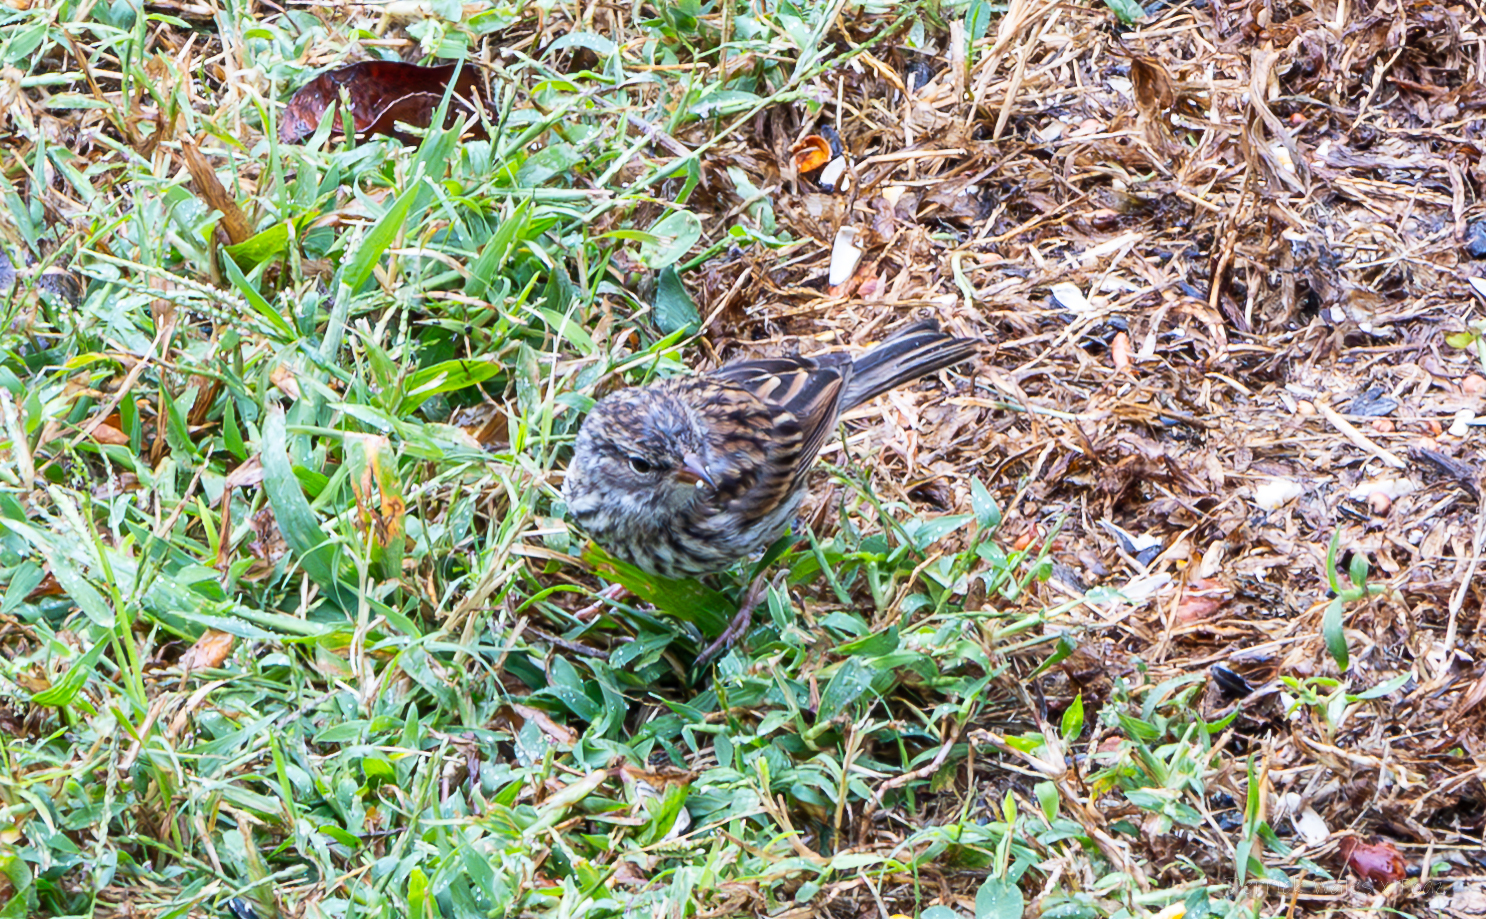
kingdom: Animalia
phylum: Chordata
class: Aves
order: Passeriformes
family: Passerellidae
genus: Spizella
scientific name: Spizella passerina
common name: Chipping sparrow
